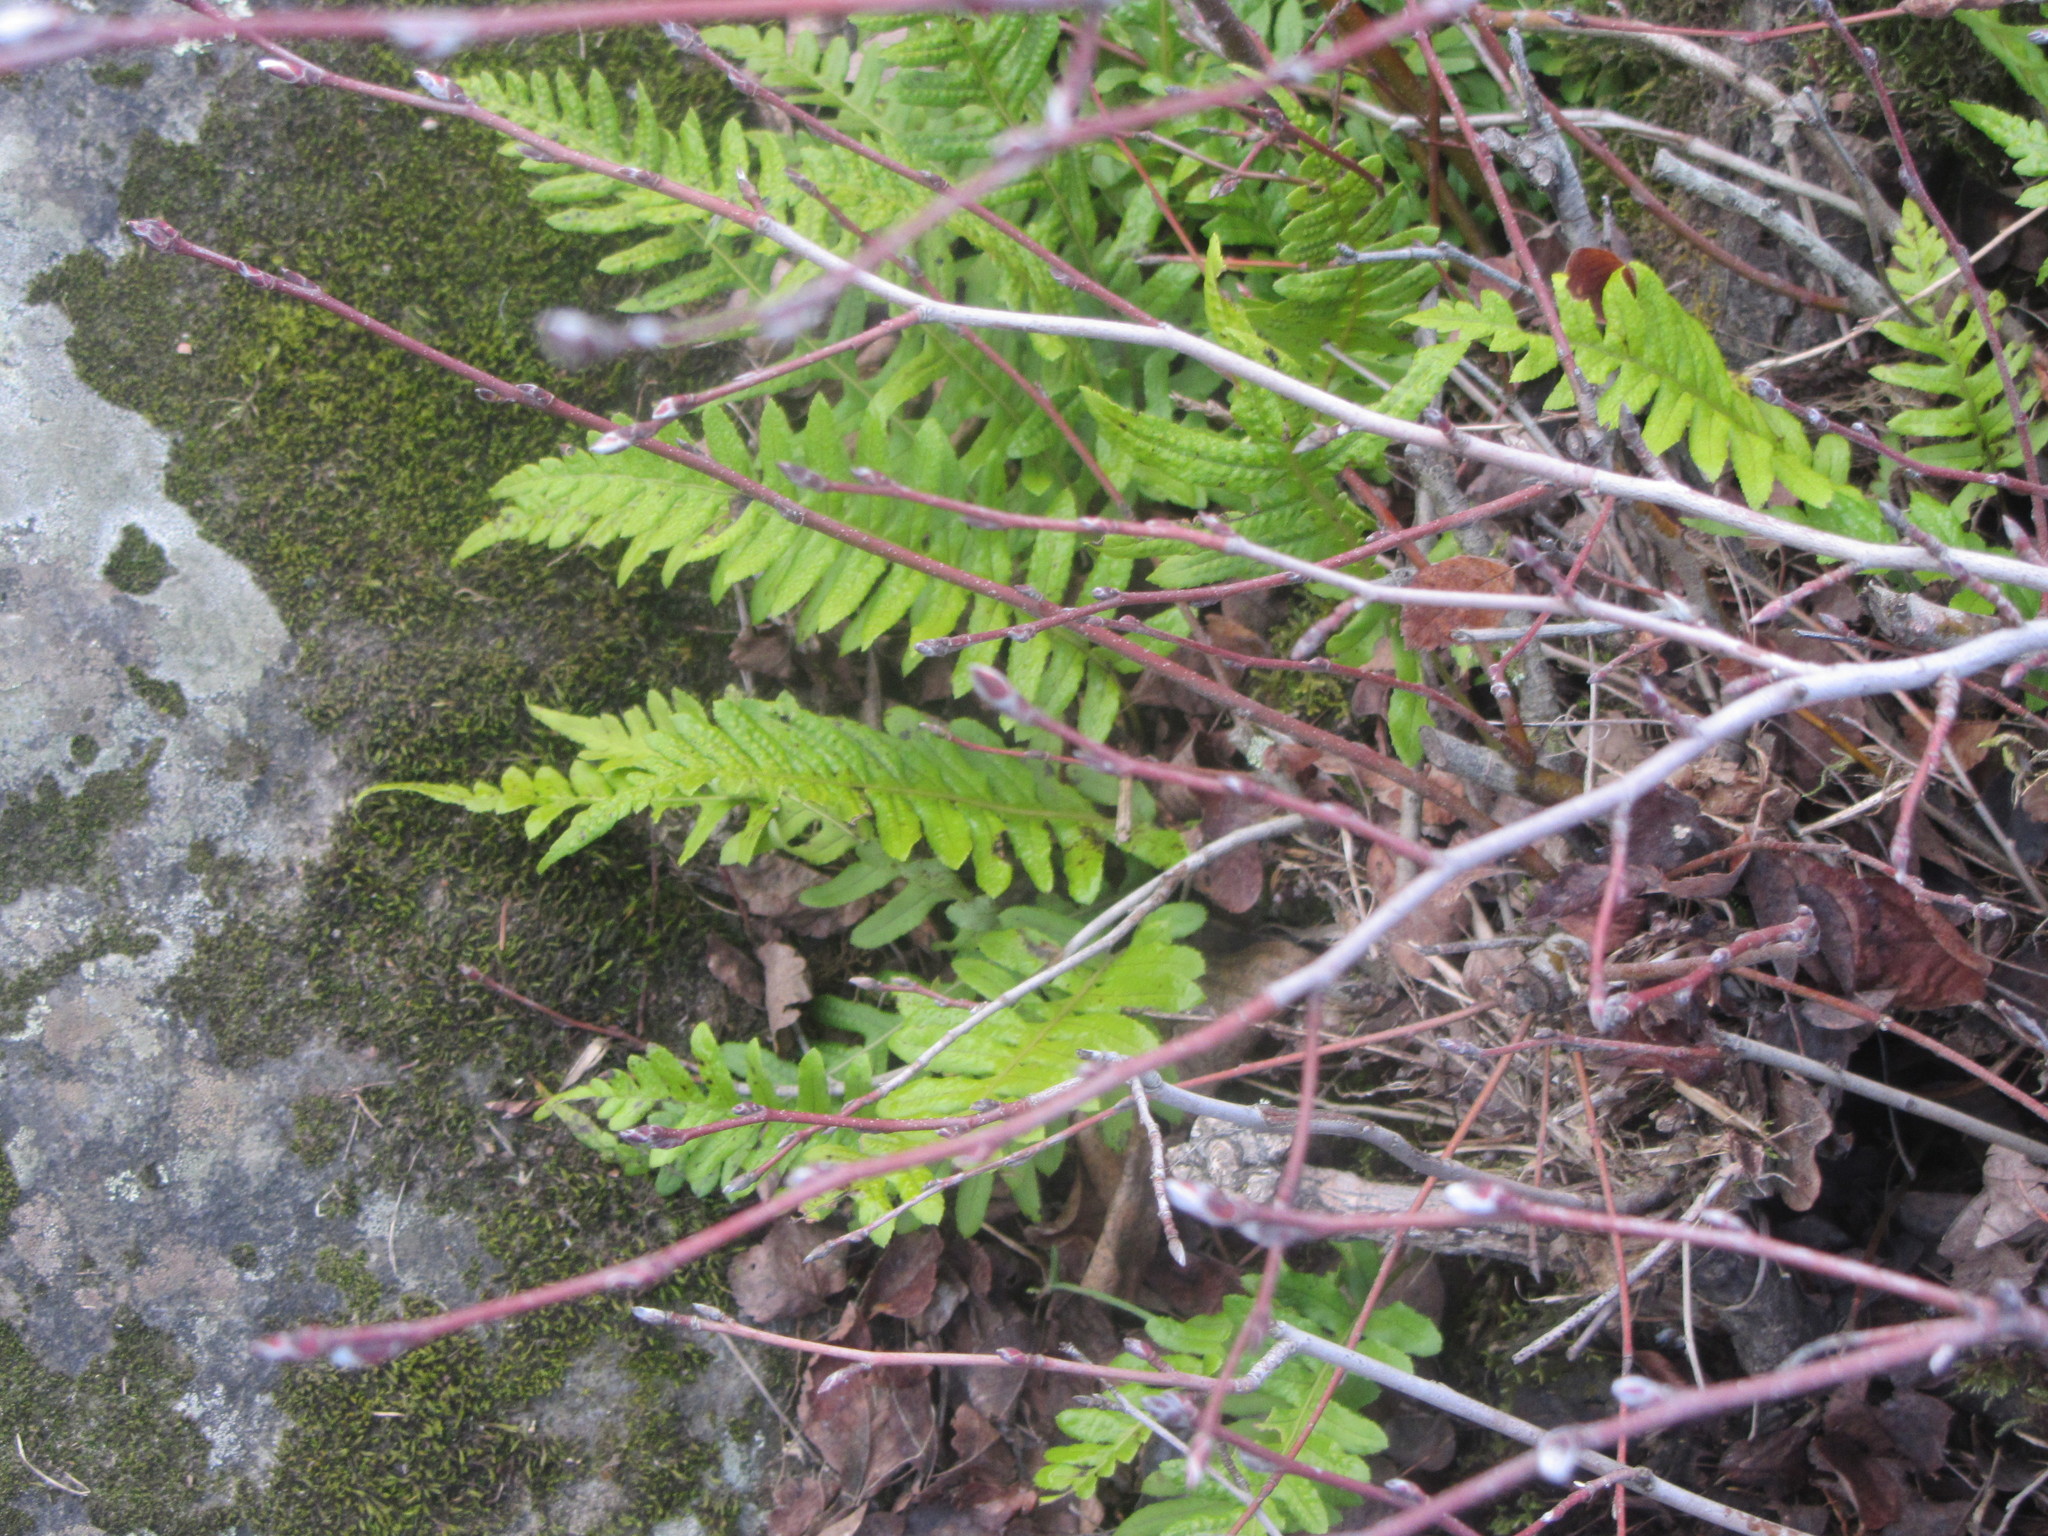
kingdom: Plantae
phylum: Tracheophyta
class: Polypodiopsida
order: Polypodiales
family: Polypodiaceae
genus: Polypodium
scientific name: Polypodium glycyrrhiza
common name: Licorice fern
